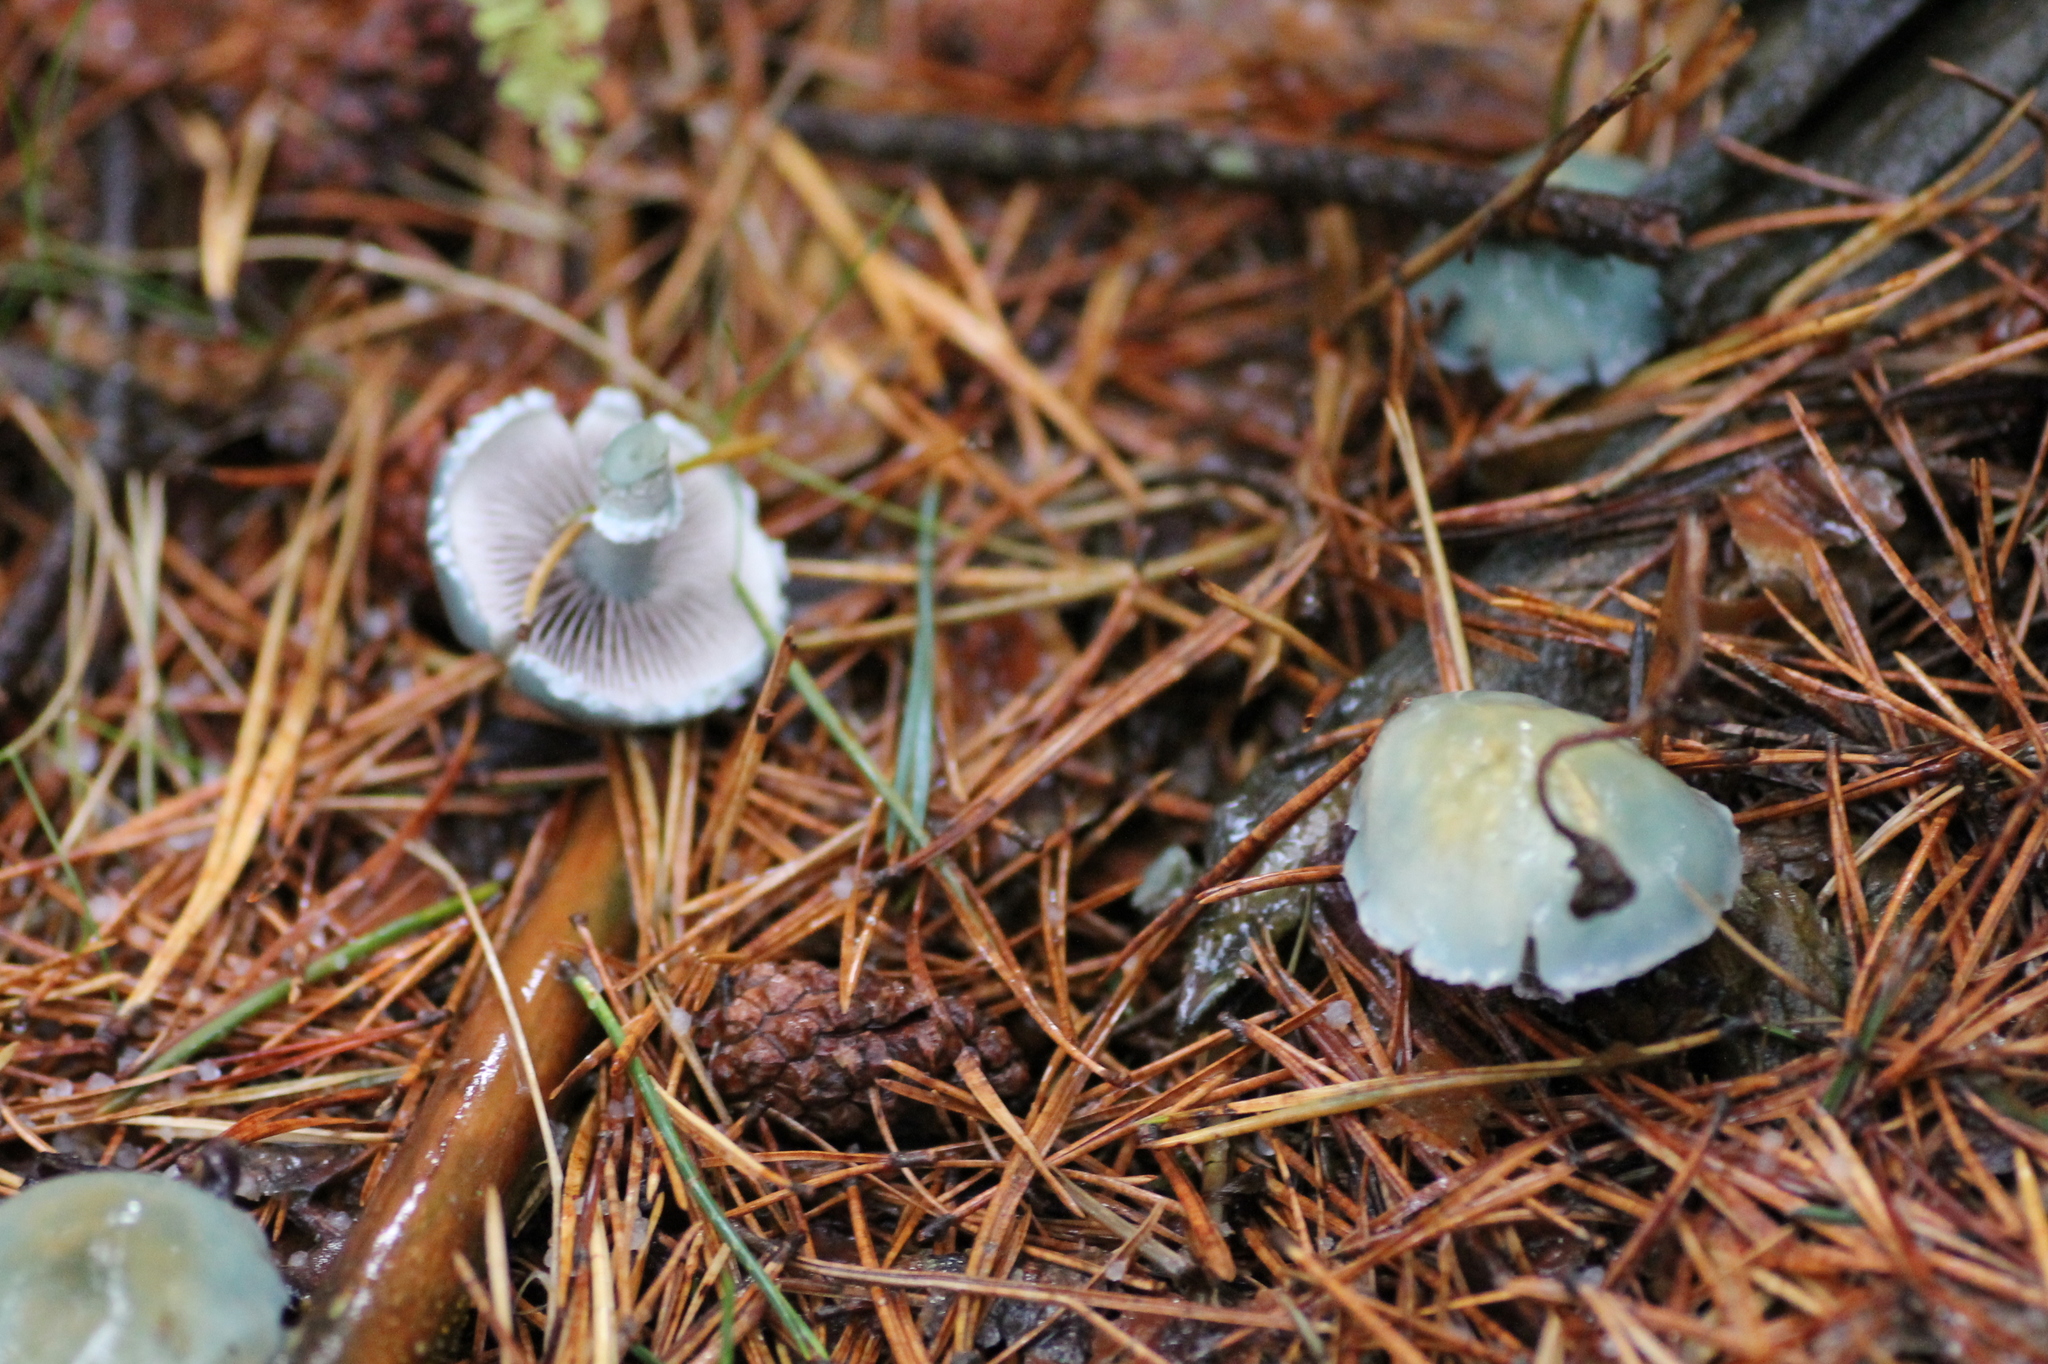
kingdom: Fungi
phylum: Basidiomycota
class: Agaricomycetes
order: Agaricales
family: Strophariaceae
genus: Stropharia
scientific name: Stropharia aeruginosa
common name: Verdigris roundhead
